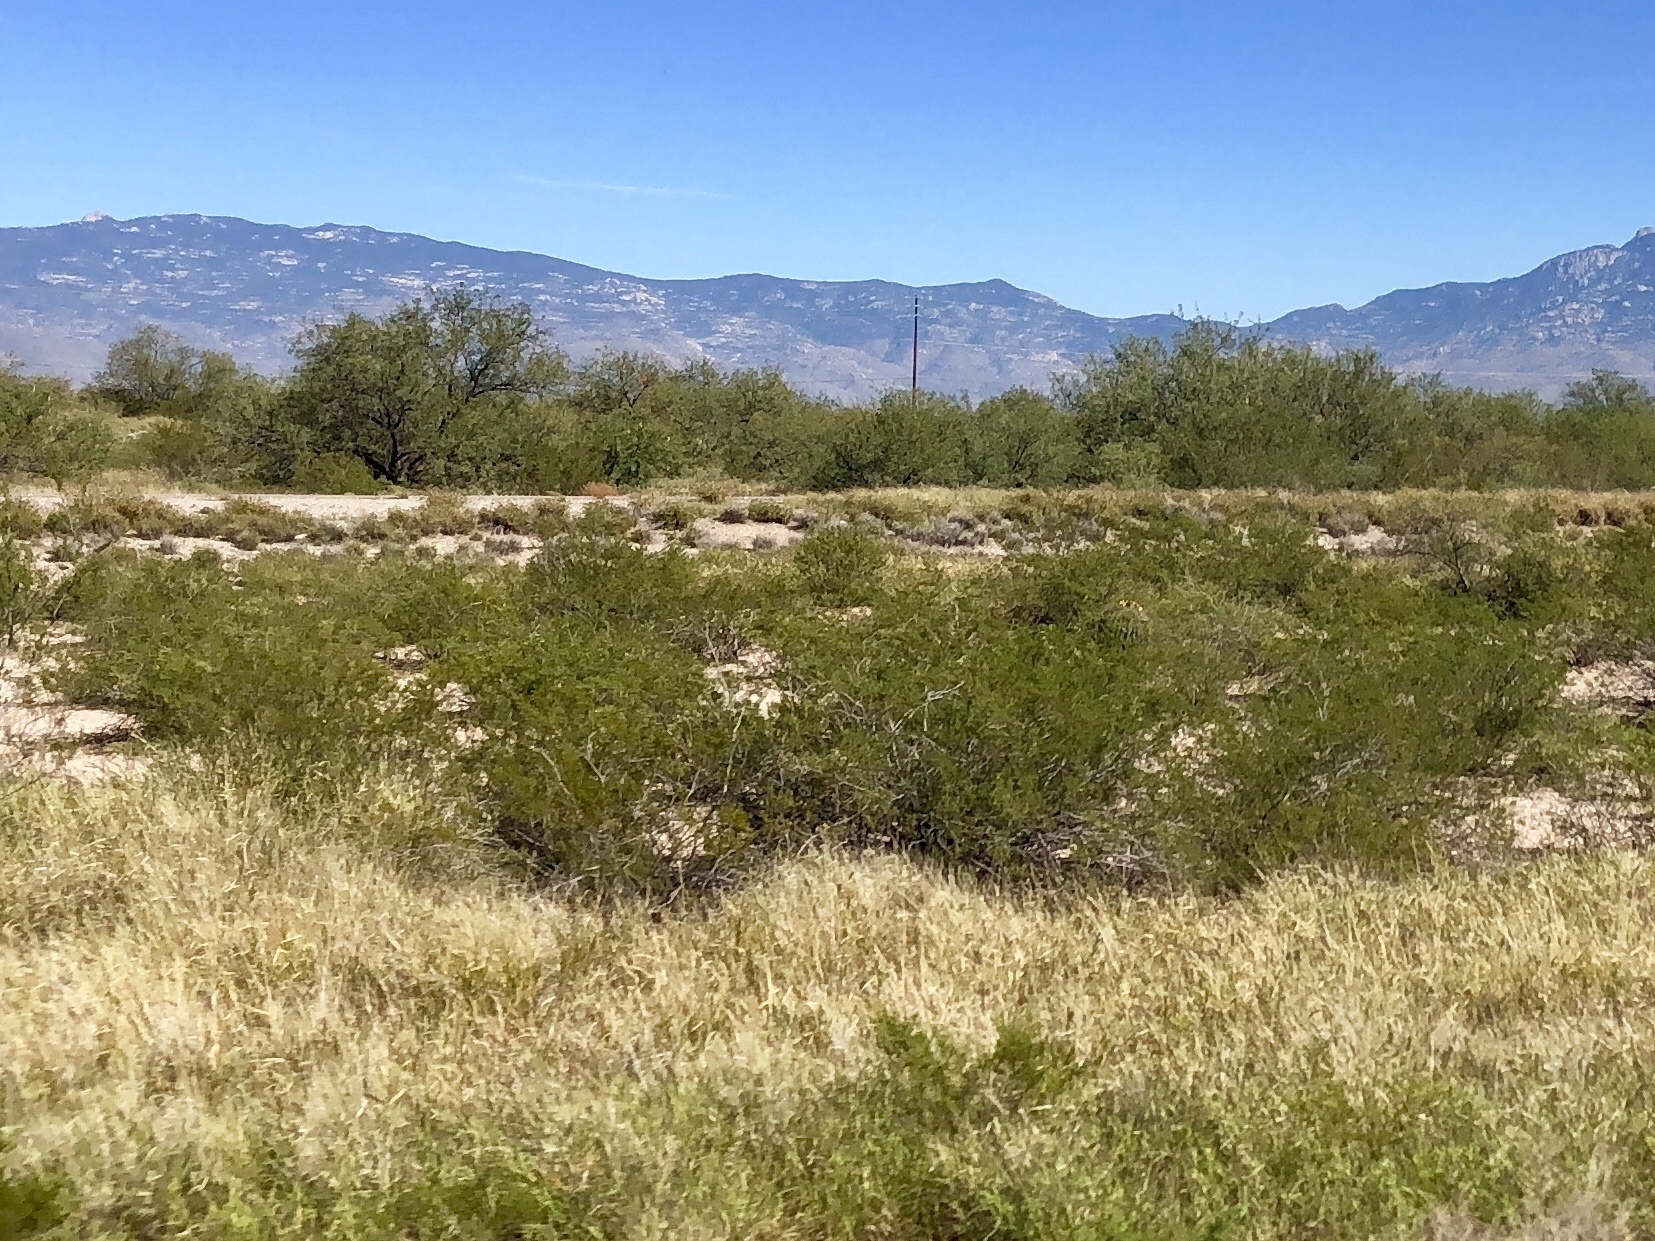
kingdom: Plantae
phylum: Tracheophyta
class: Magnoliopsida
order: Zygophyllales
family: Zygophyllaceae
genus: Larrea
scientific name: Larrea tridentata
